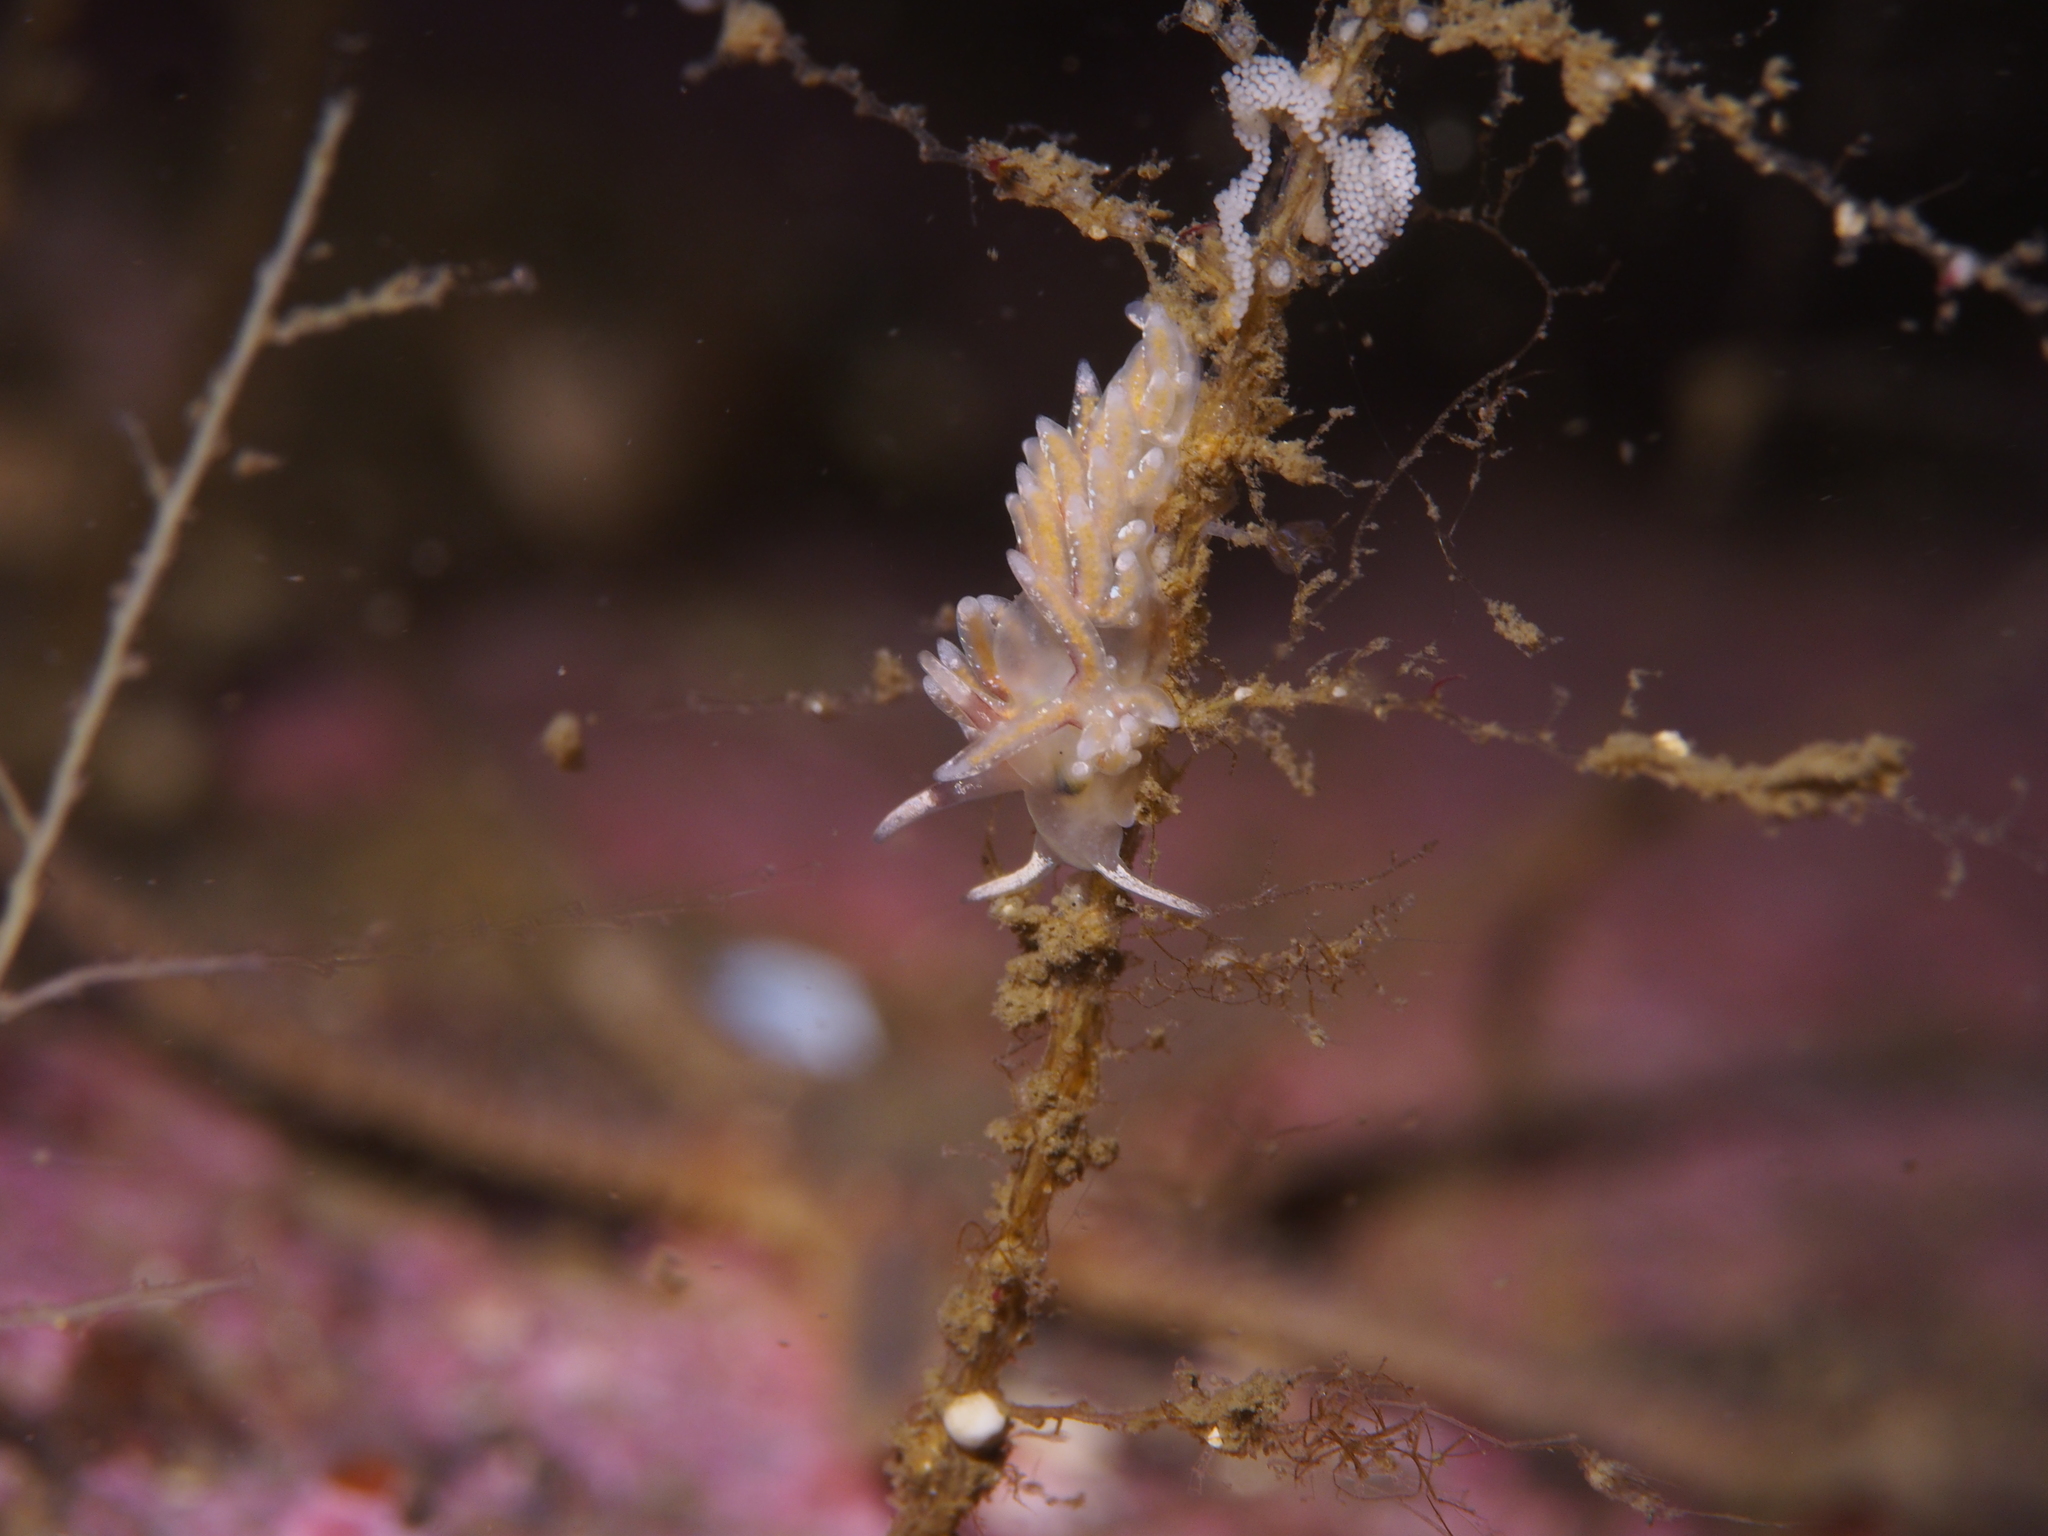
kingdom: Animalia
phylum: Mollusca
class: Gastropoda
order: Nudibranchia
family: Trinchesiidae
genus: Rubramoena
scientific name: Rubramoena rubescens
